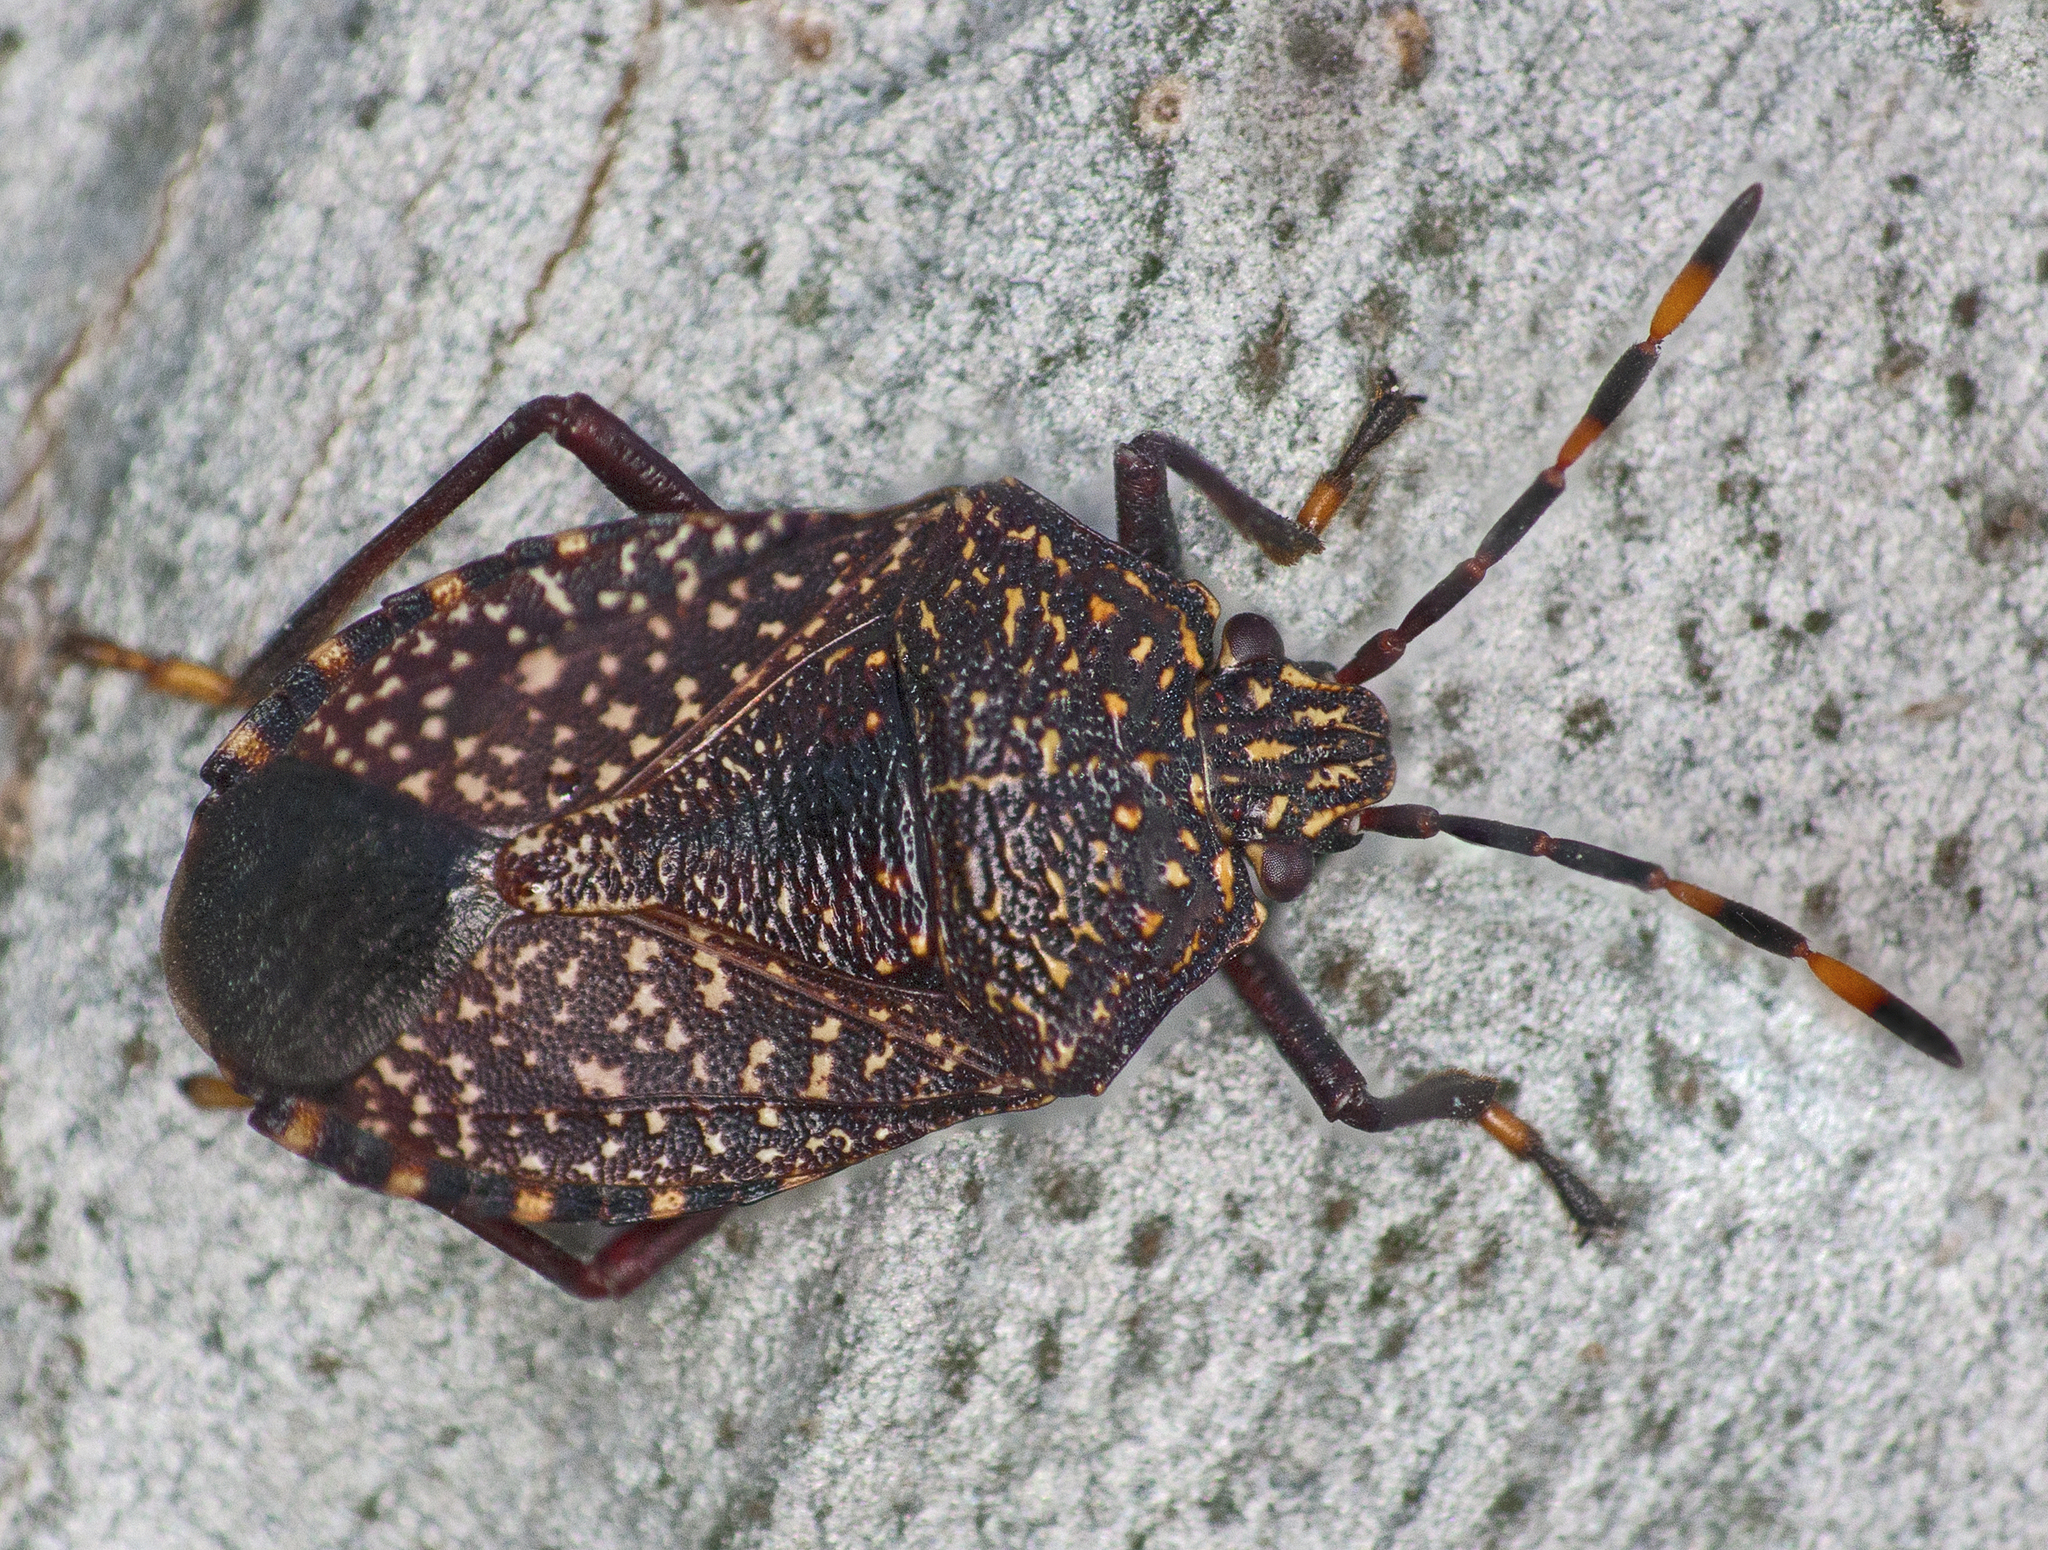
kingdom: Animalia
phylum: Arthropoda
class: Insecta
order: Hemiptera
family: Pentatomidae
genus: Notius
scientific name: Notius
